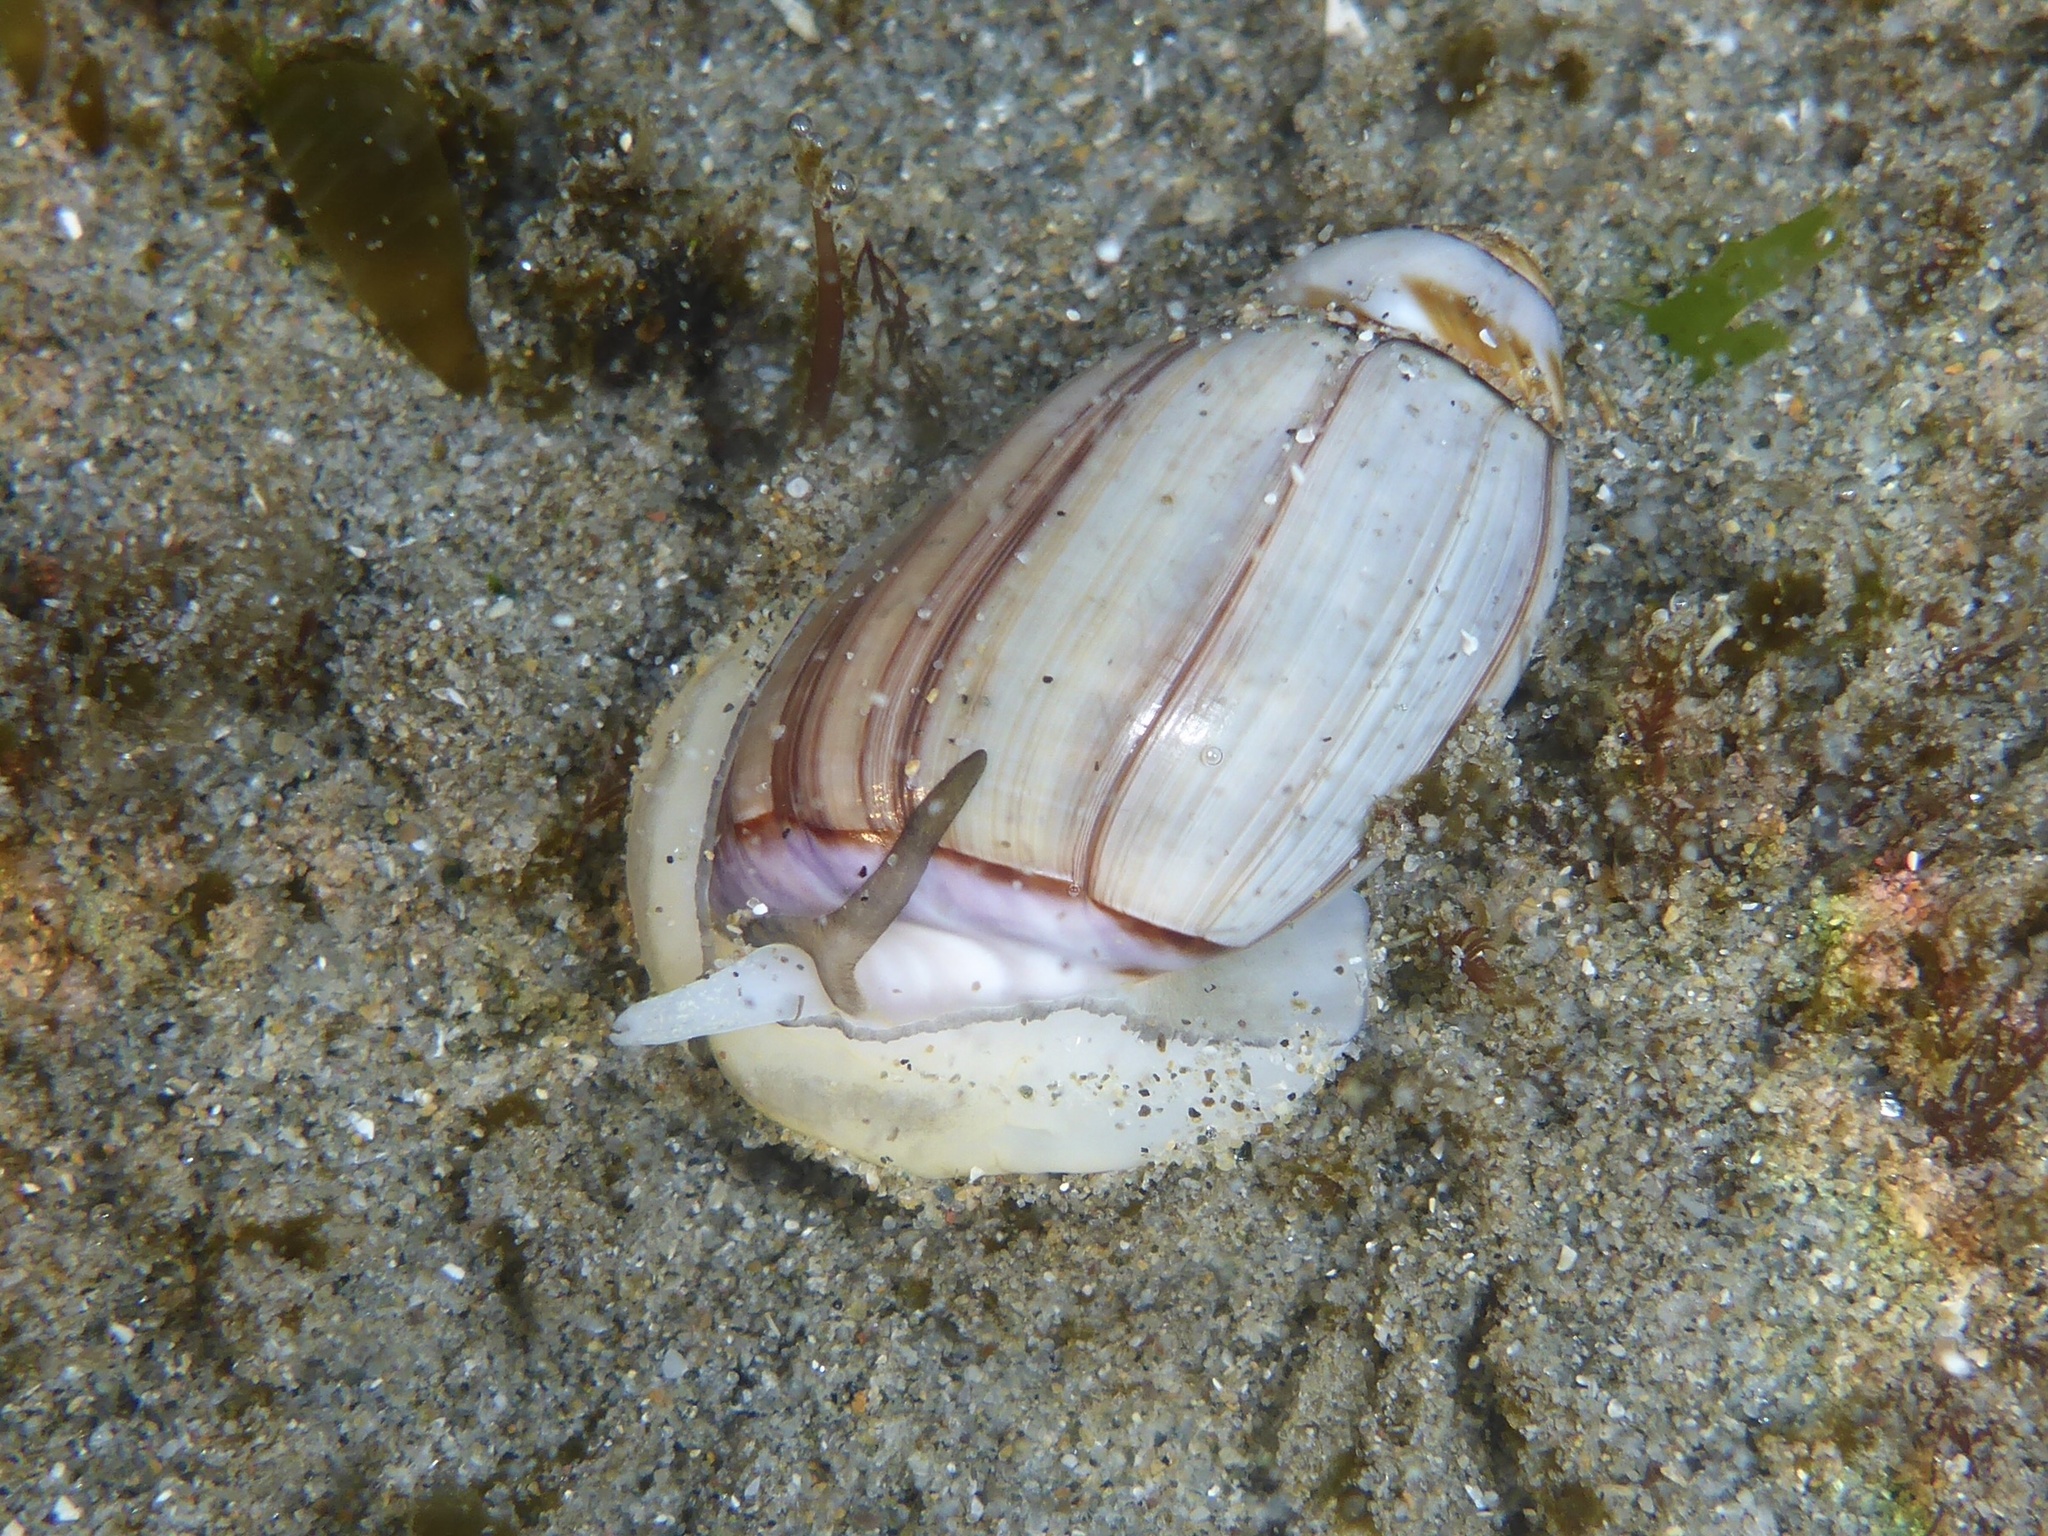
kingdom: Animalia
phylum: Mollusca
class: Gastropoda
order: Neogastropoda
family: Olividae
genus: Callianax
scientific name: Callianax biplicata
